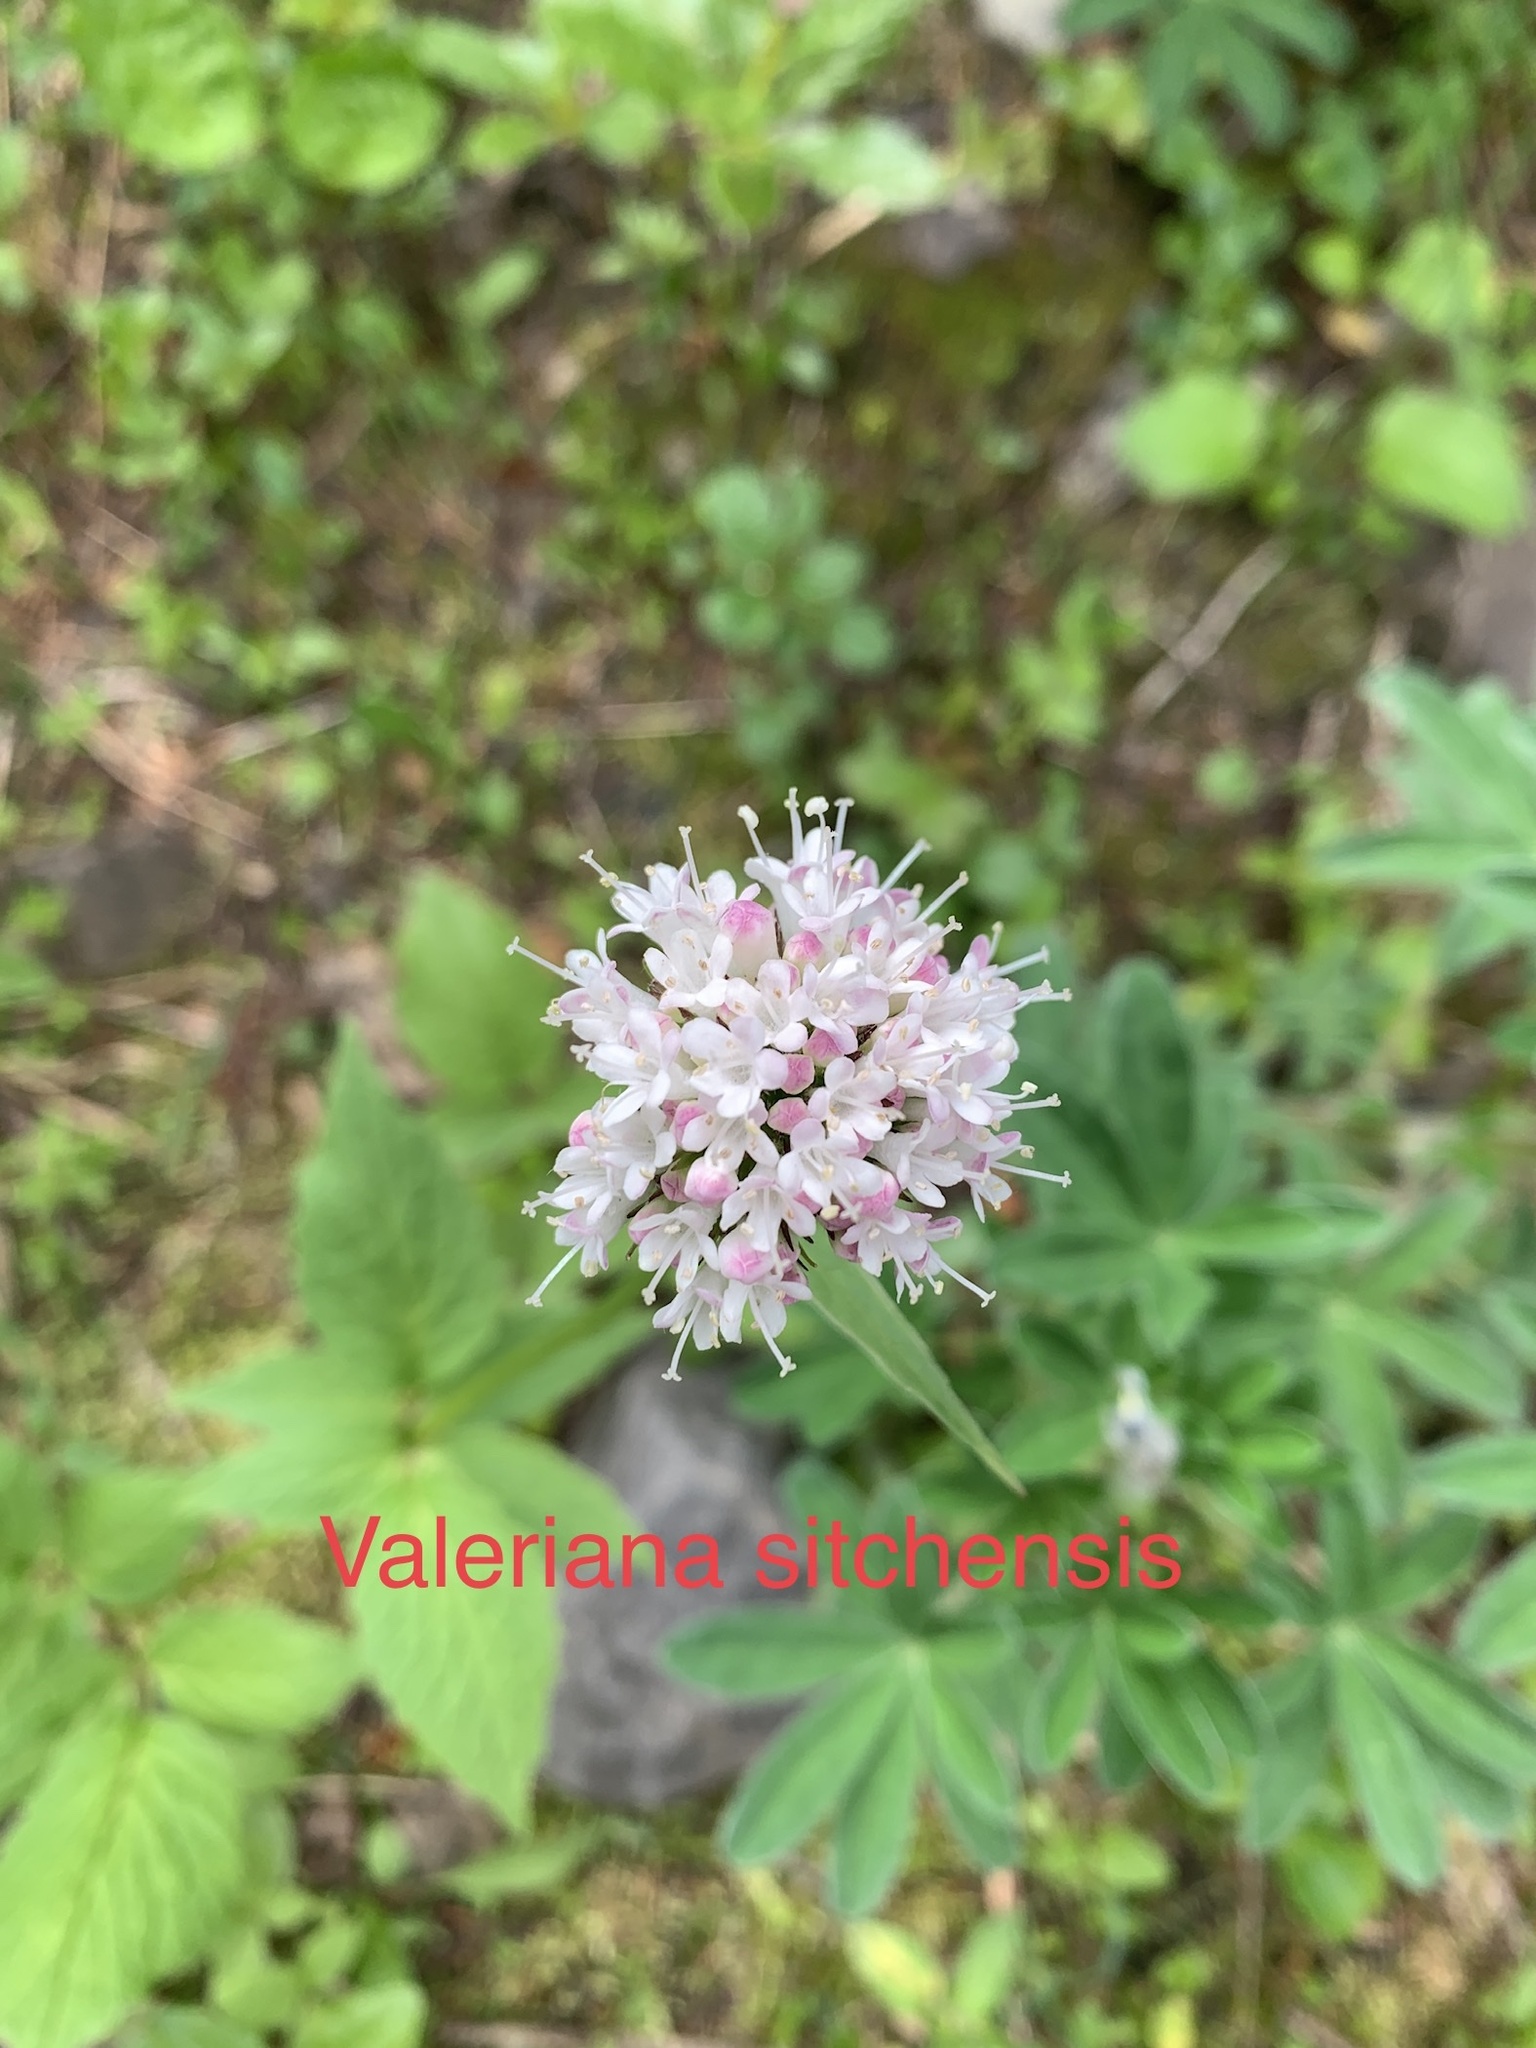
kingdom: Plantae
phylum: Tracheophyta
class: Magnoliopsida
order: Dipsacales
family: Caprifoliaceae
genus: Valeriana
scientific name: Valeriana sitchensis
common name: Pacific valerian
